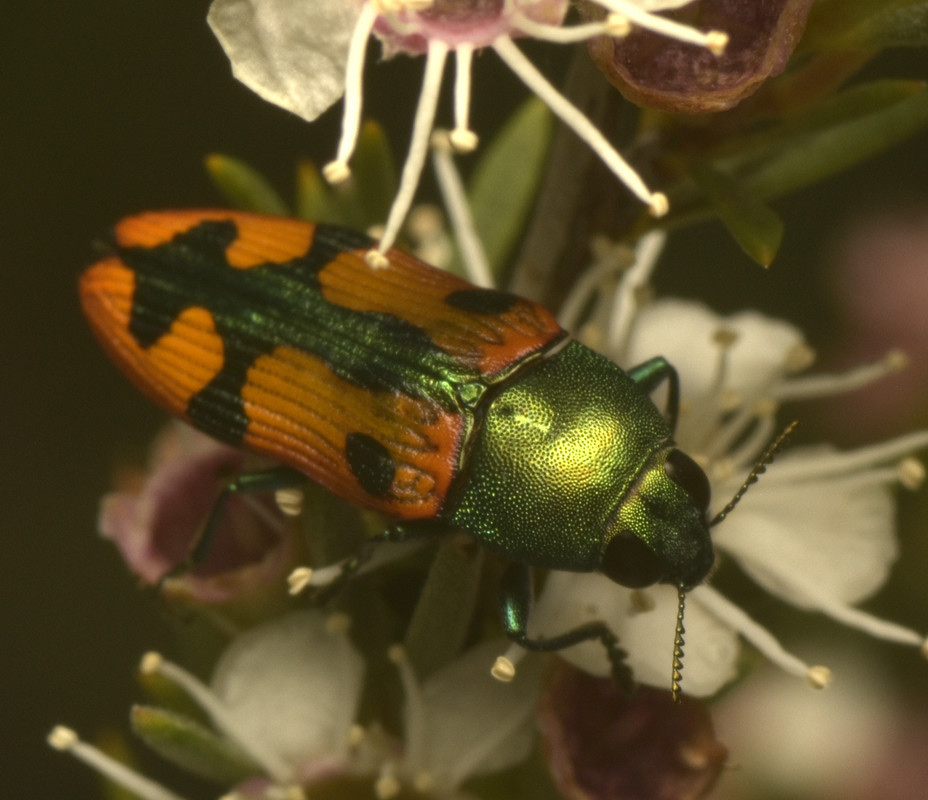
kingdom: Animalia
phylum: Arthropoda
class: Insecta
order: Coleoptera
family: Buprestidae
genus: Castiarina
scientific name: Castiarina scalaris
